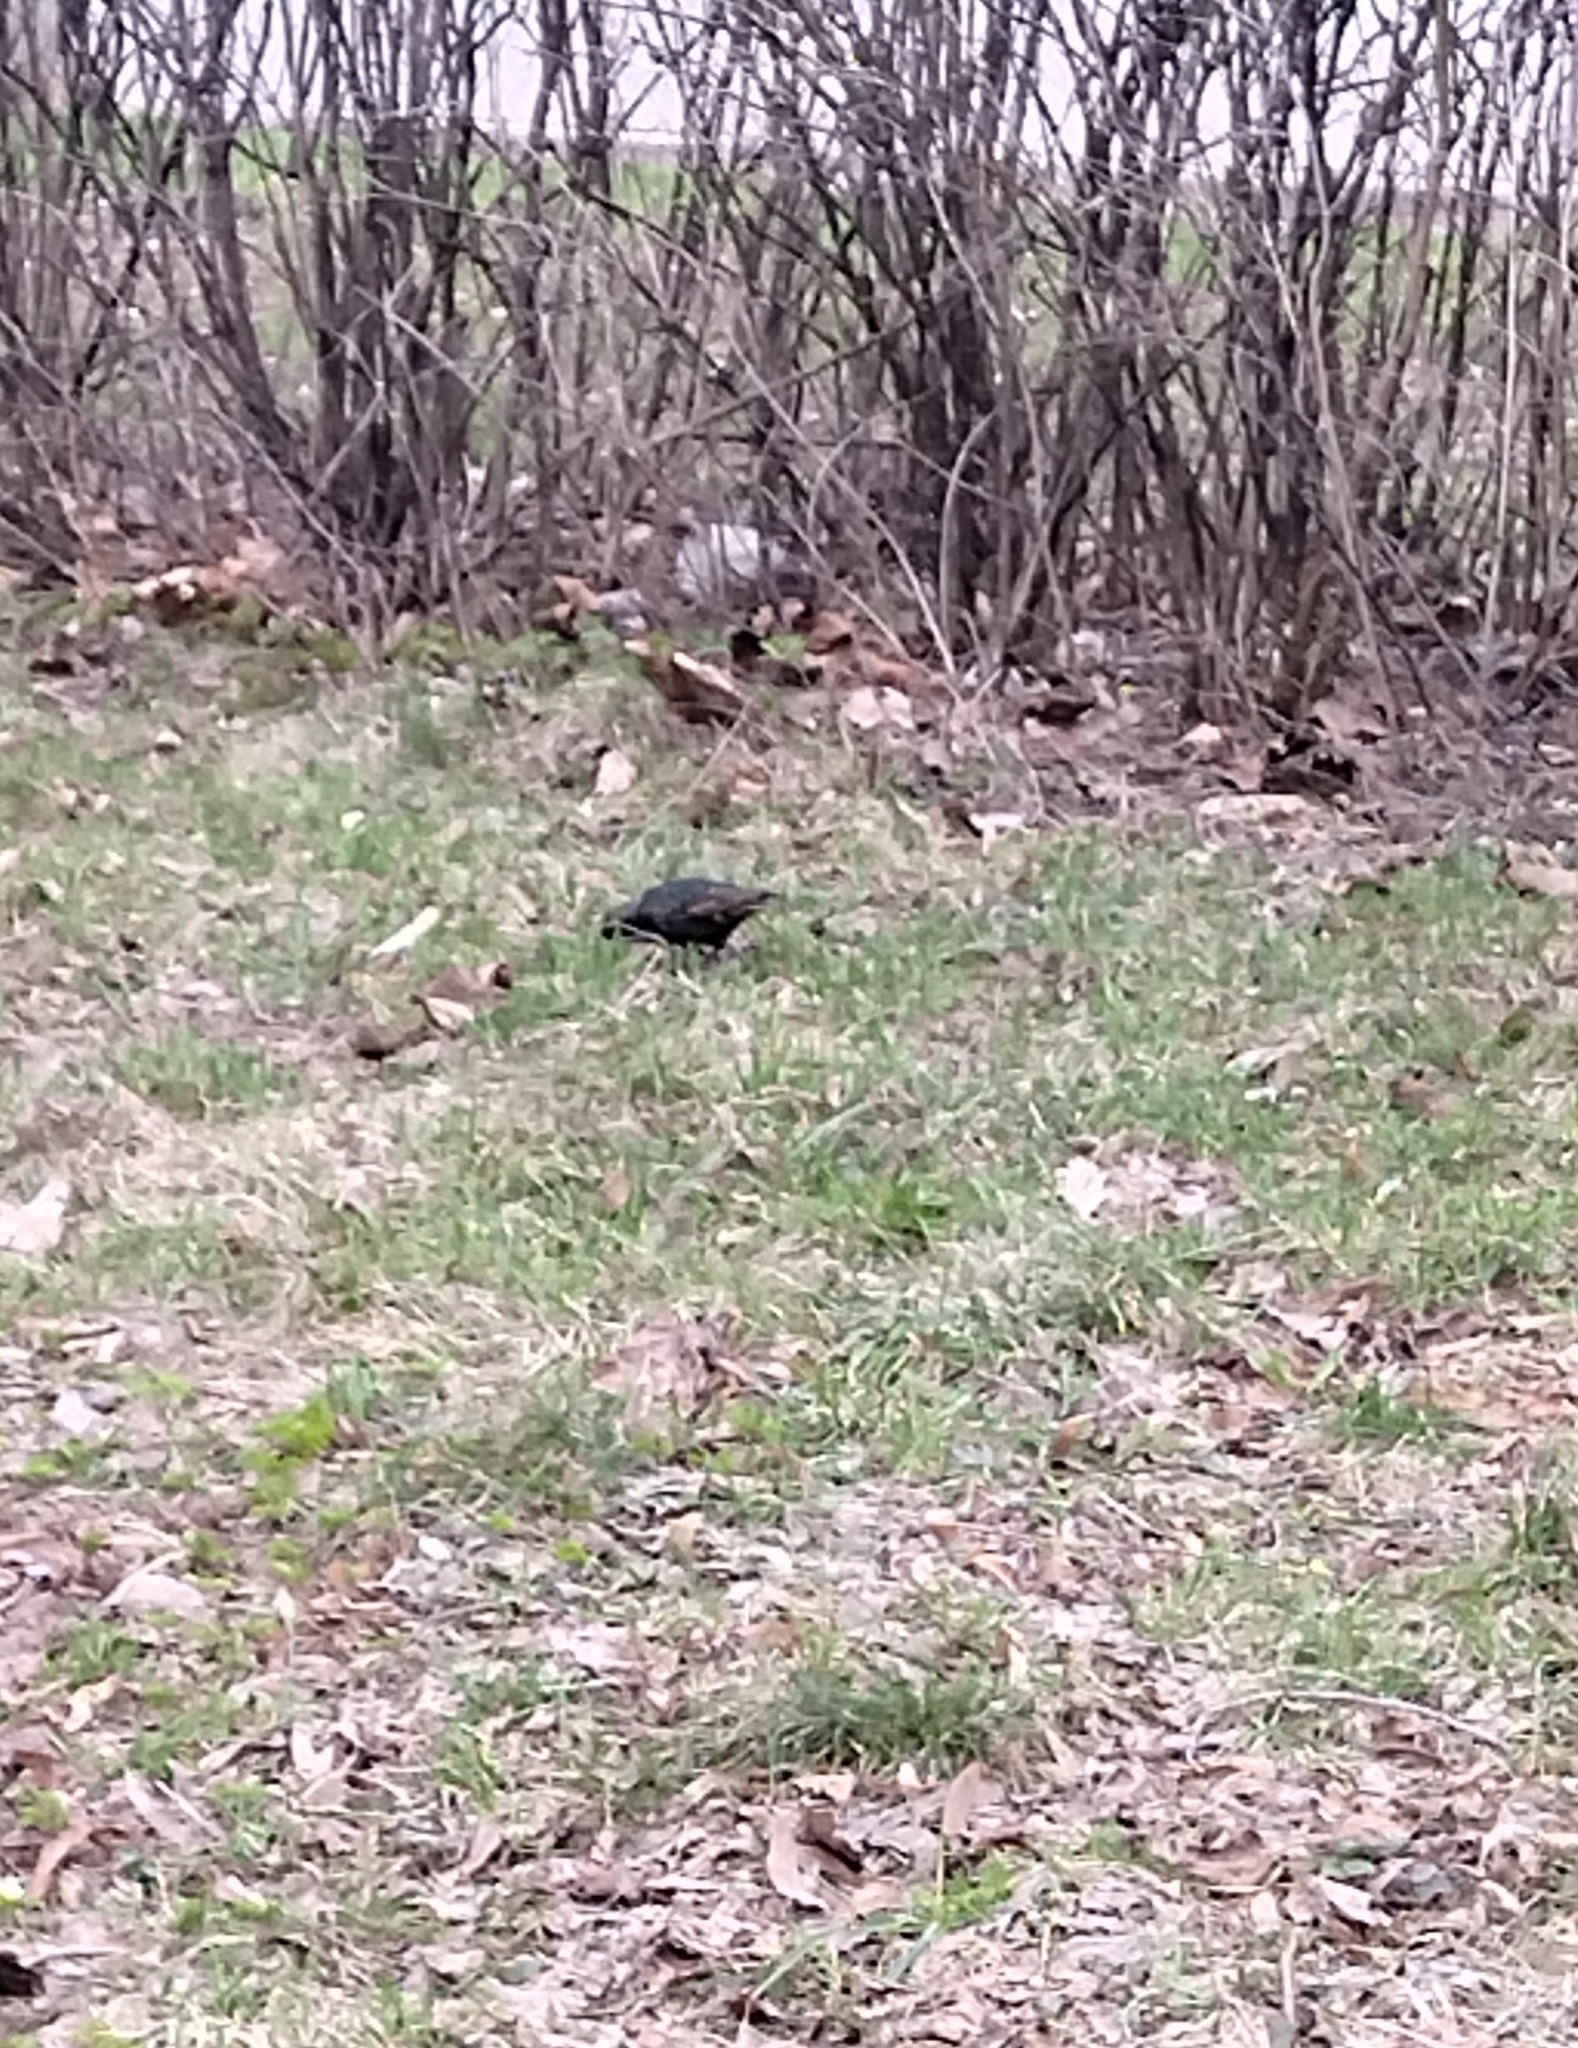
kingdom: Animalia
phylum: Chordata
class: Aves
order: Passeriformes
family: Sturnidae
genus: Sturnus
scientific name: Sturnus vulgaris
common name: Common starling
